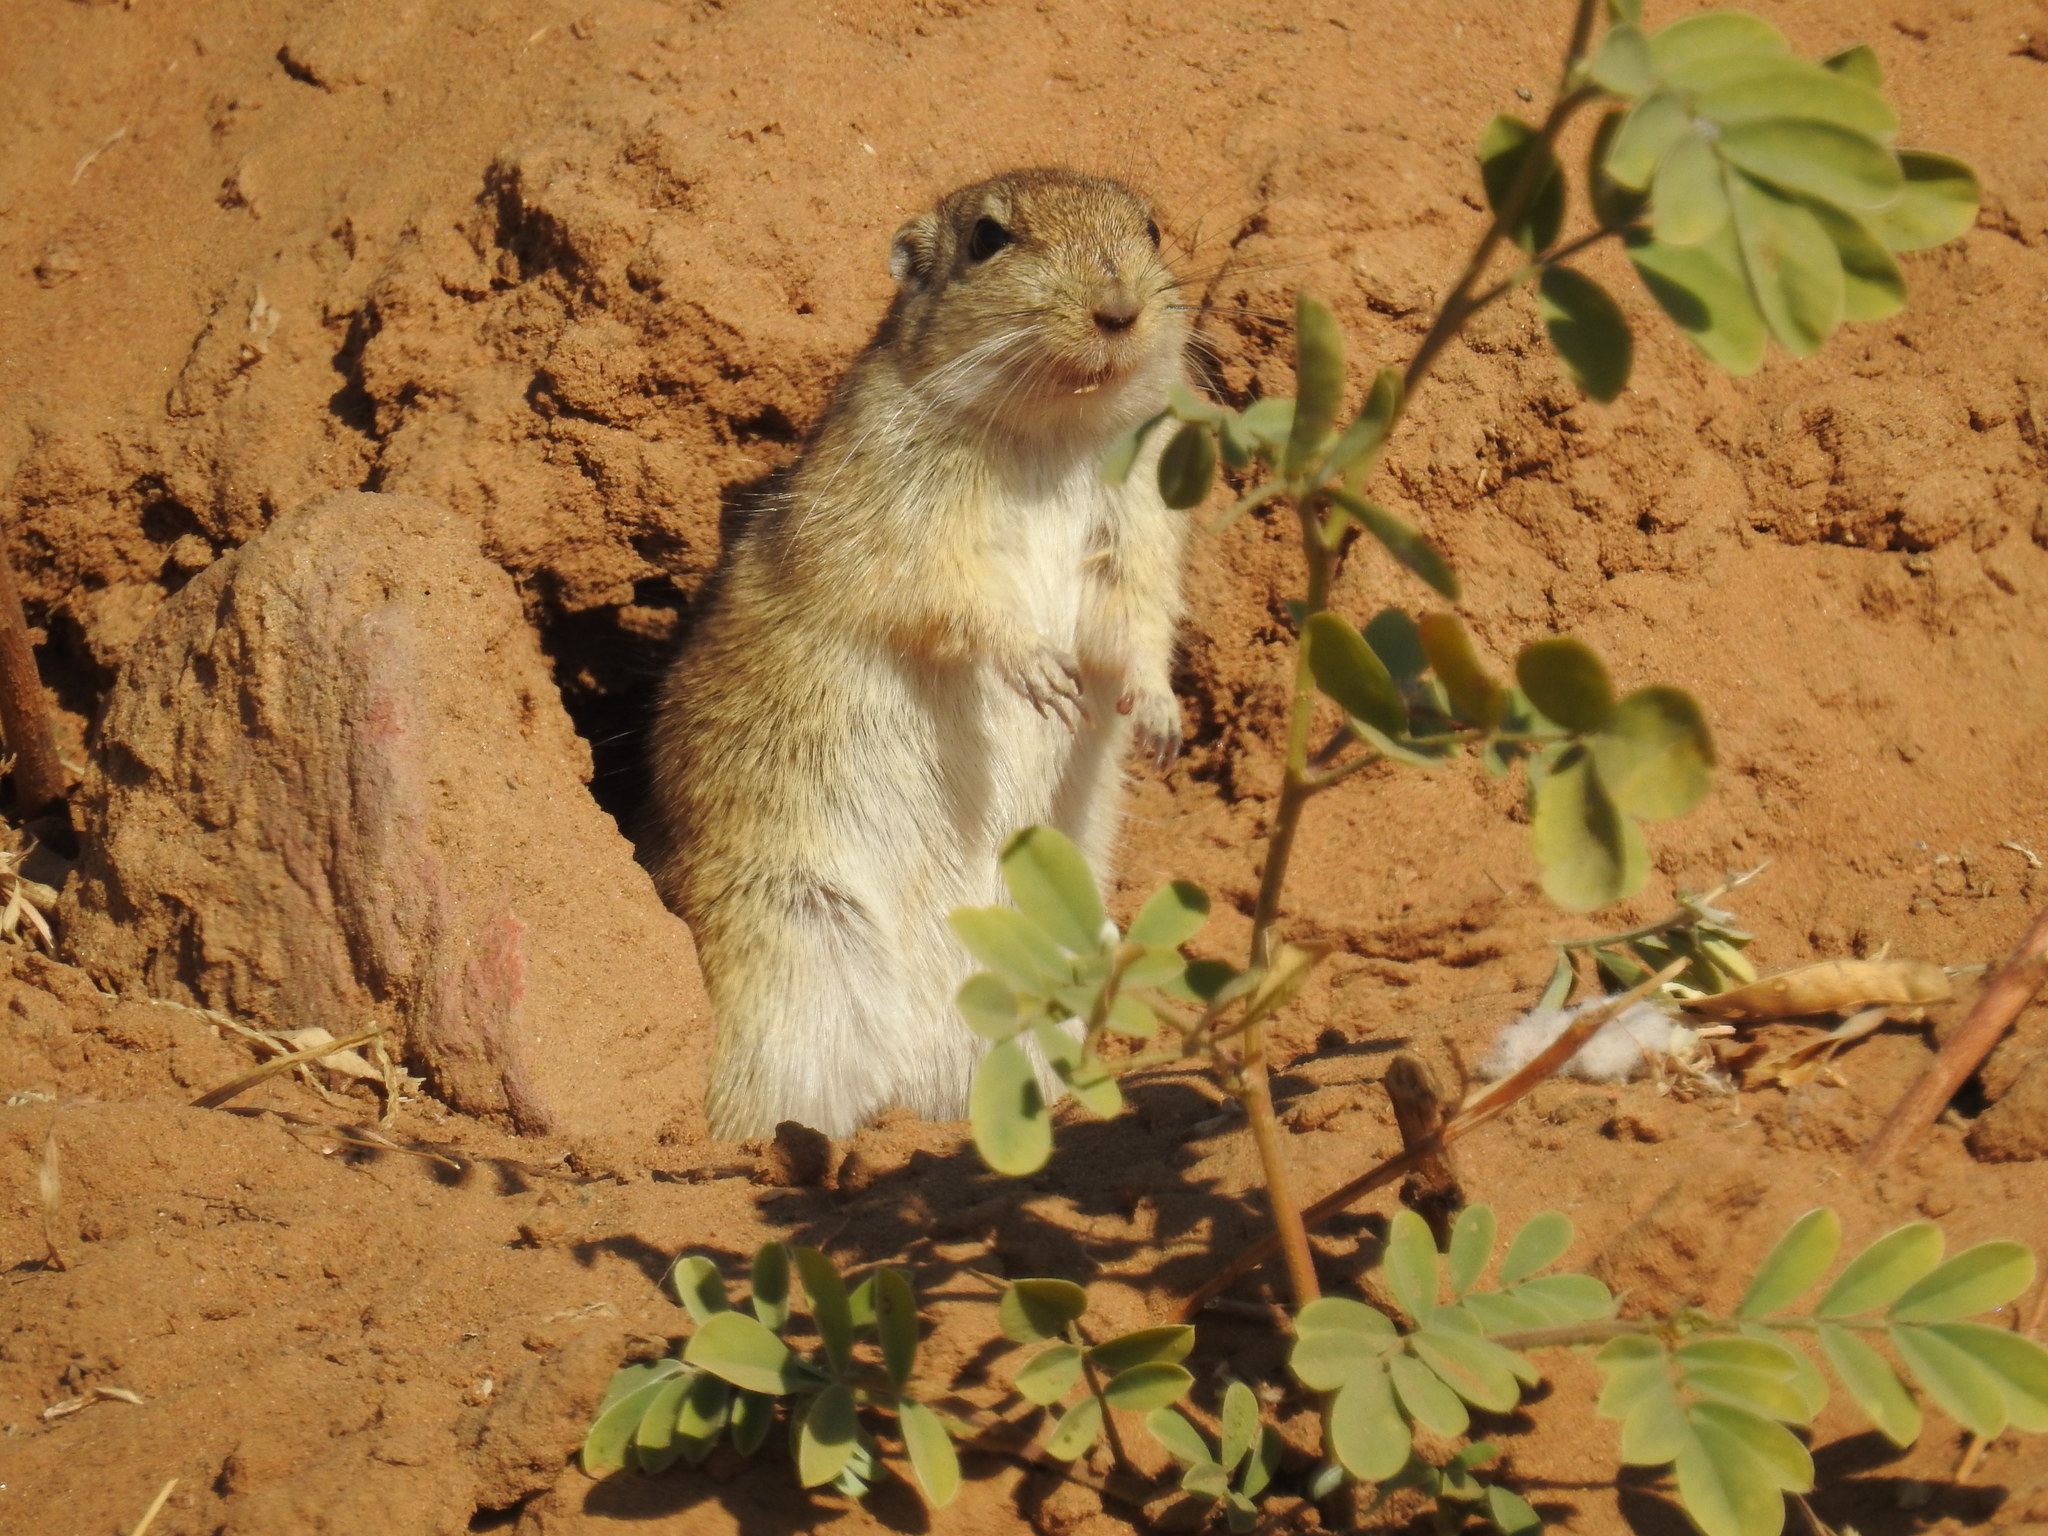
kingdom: Animalia
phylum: Chordata
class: Mammalia
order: Rodentia
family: Muridae
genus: Meriones
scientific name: Meriones hurrianae
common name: Indian desert jird
